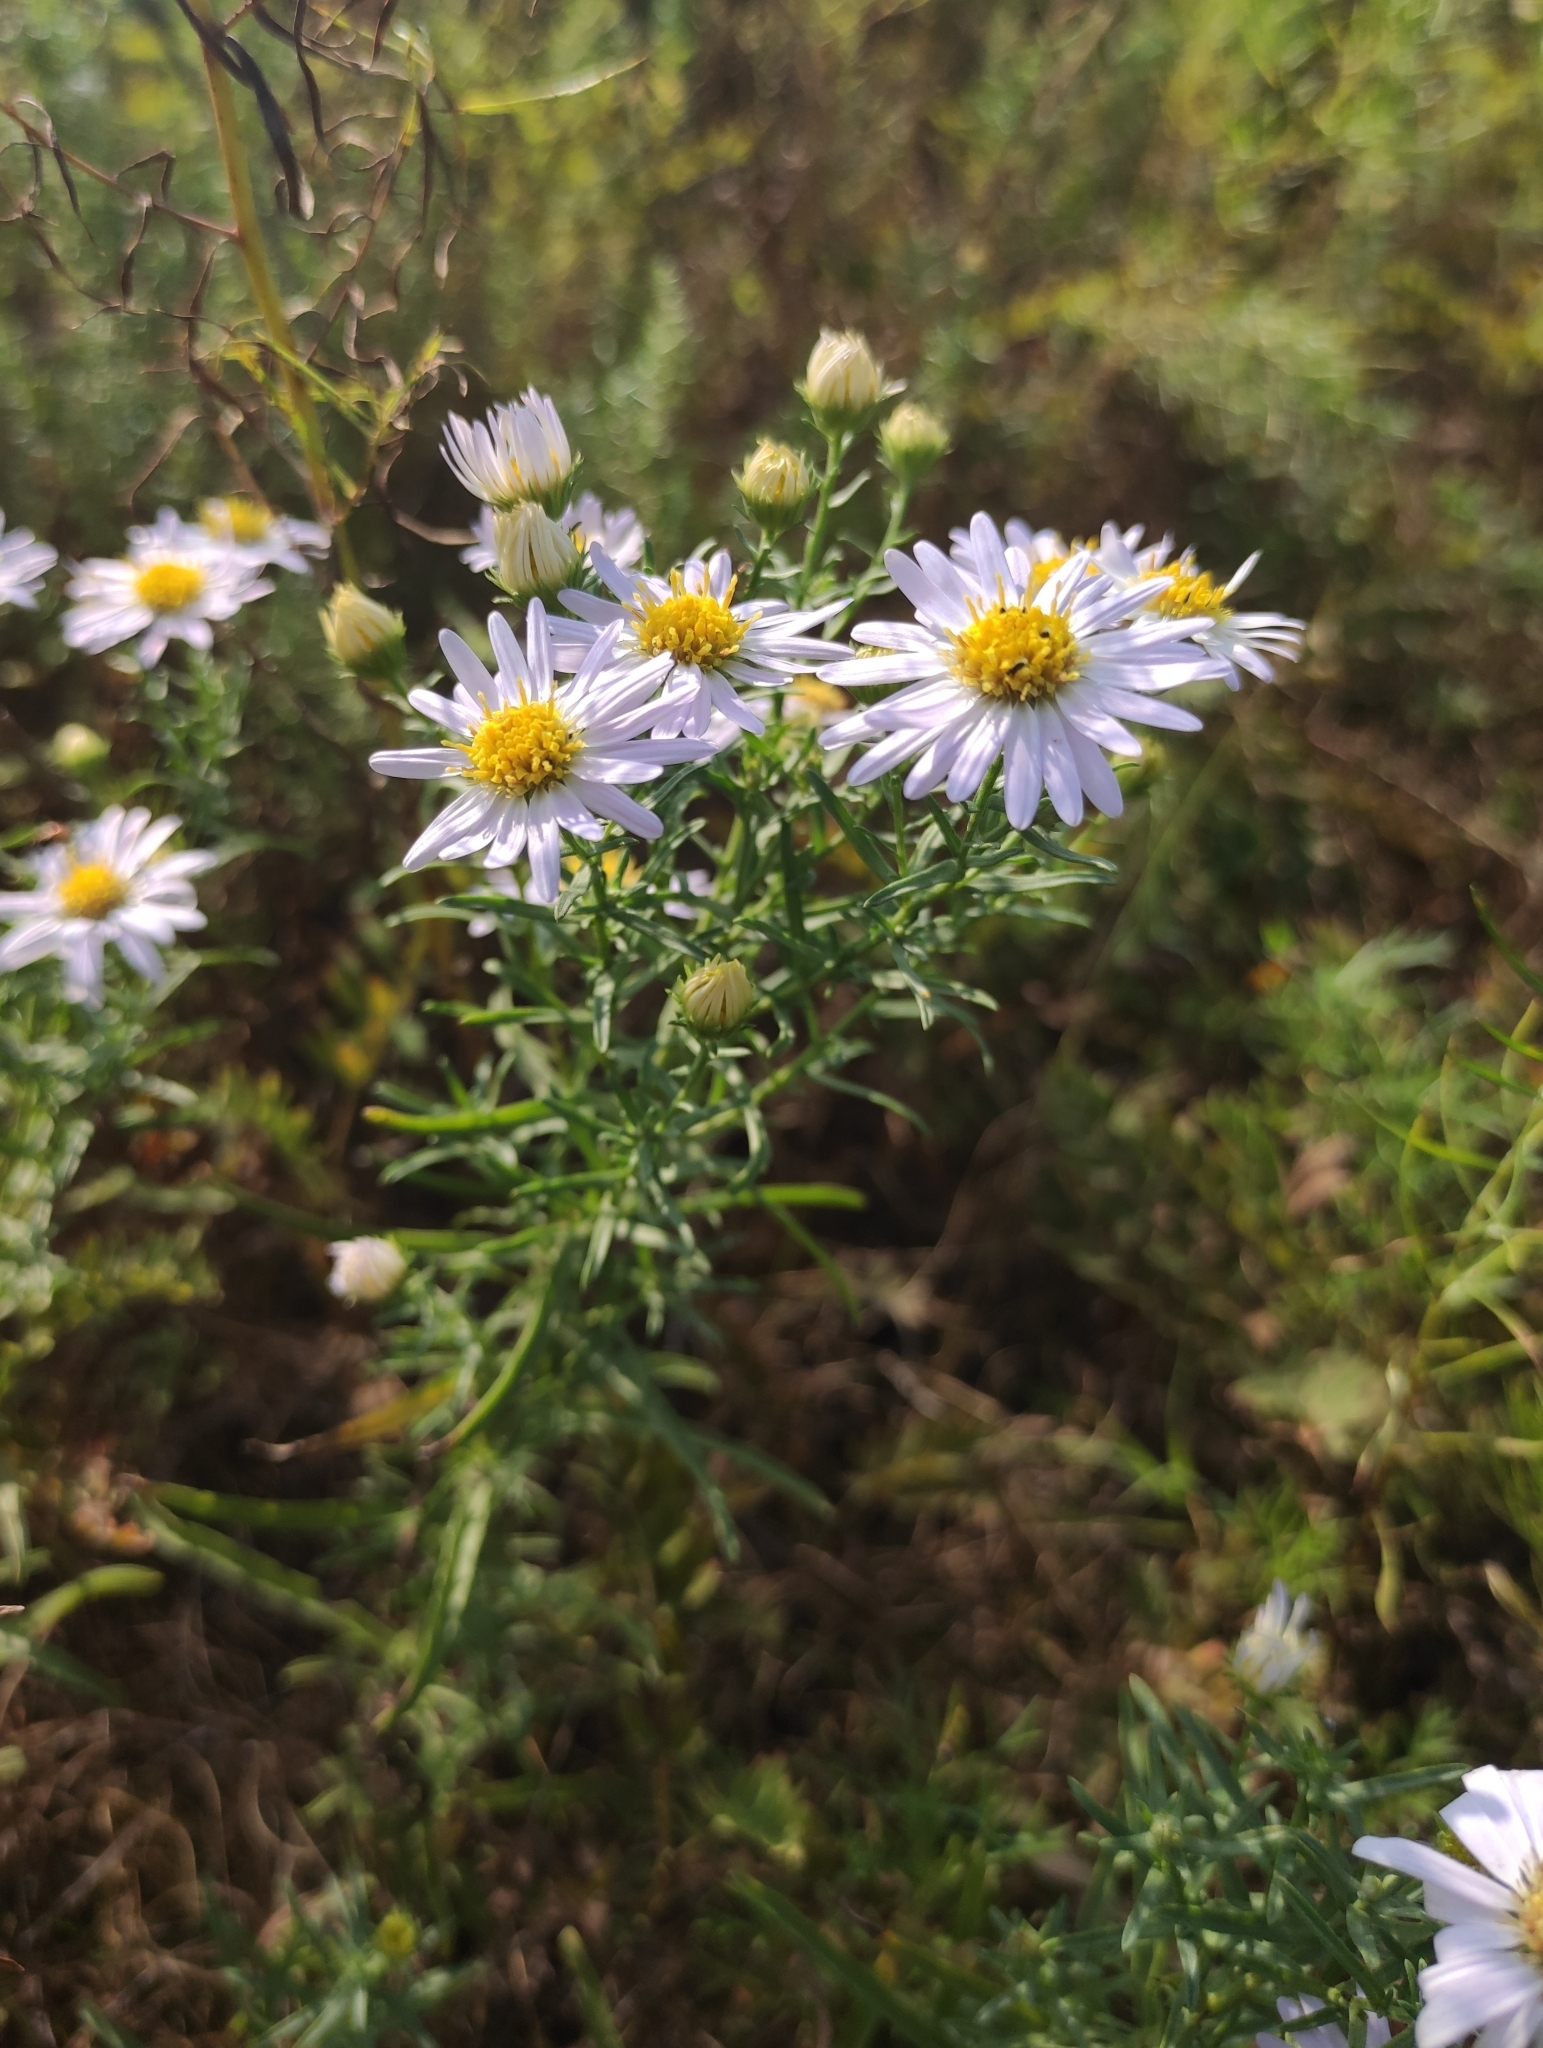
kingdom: Plantae
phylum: Tracheophyta
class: Magnoliopsida
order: Asterales
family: Asteraceae
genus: Heteropappus
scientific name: Heteropappus altaicus
